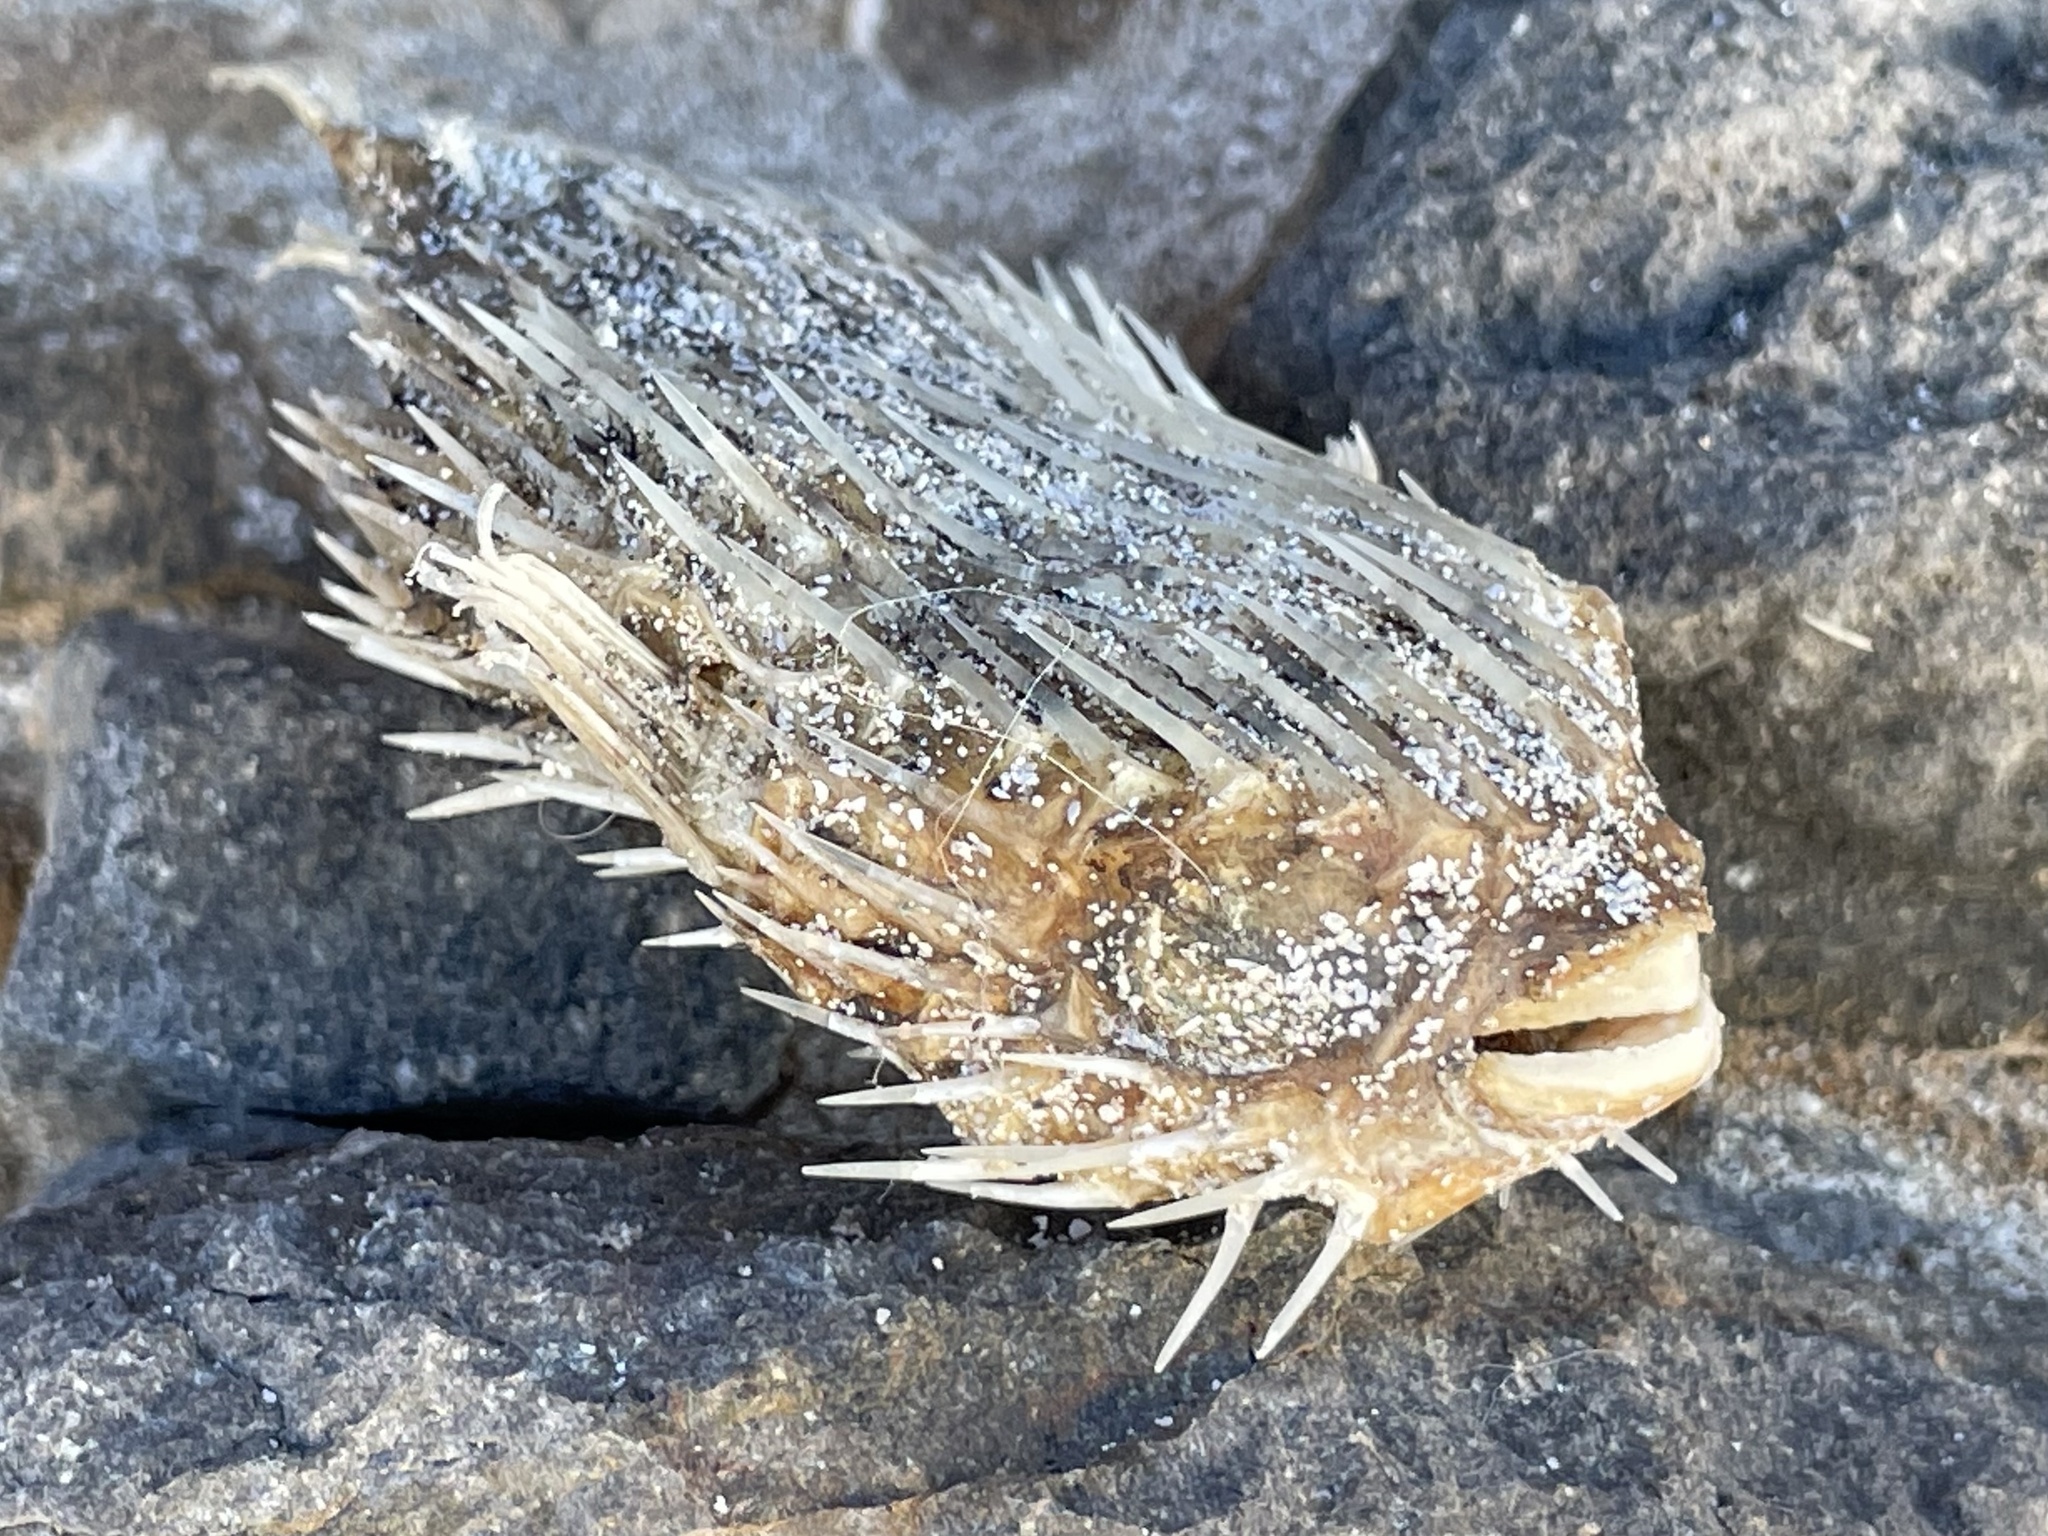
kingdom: Animalia
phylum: Chordata
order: Tetraodontiformes
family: Diodontidae
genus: Diodon
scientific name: Diodon holocanthus
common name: Balloonfish
